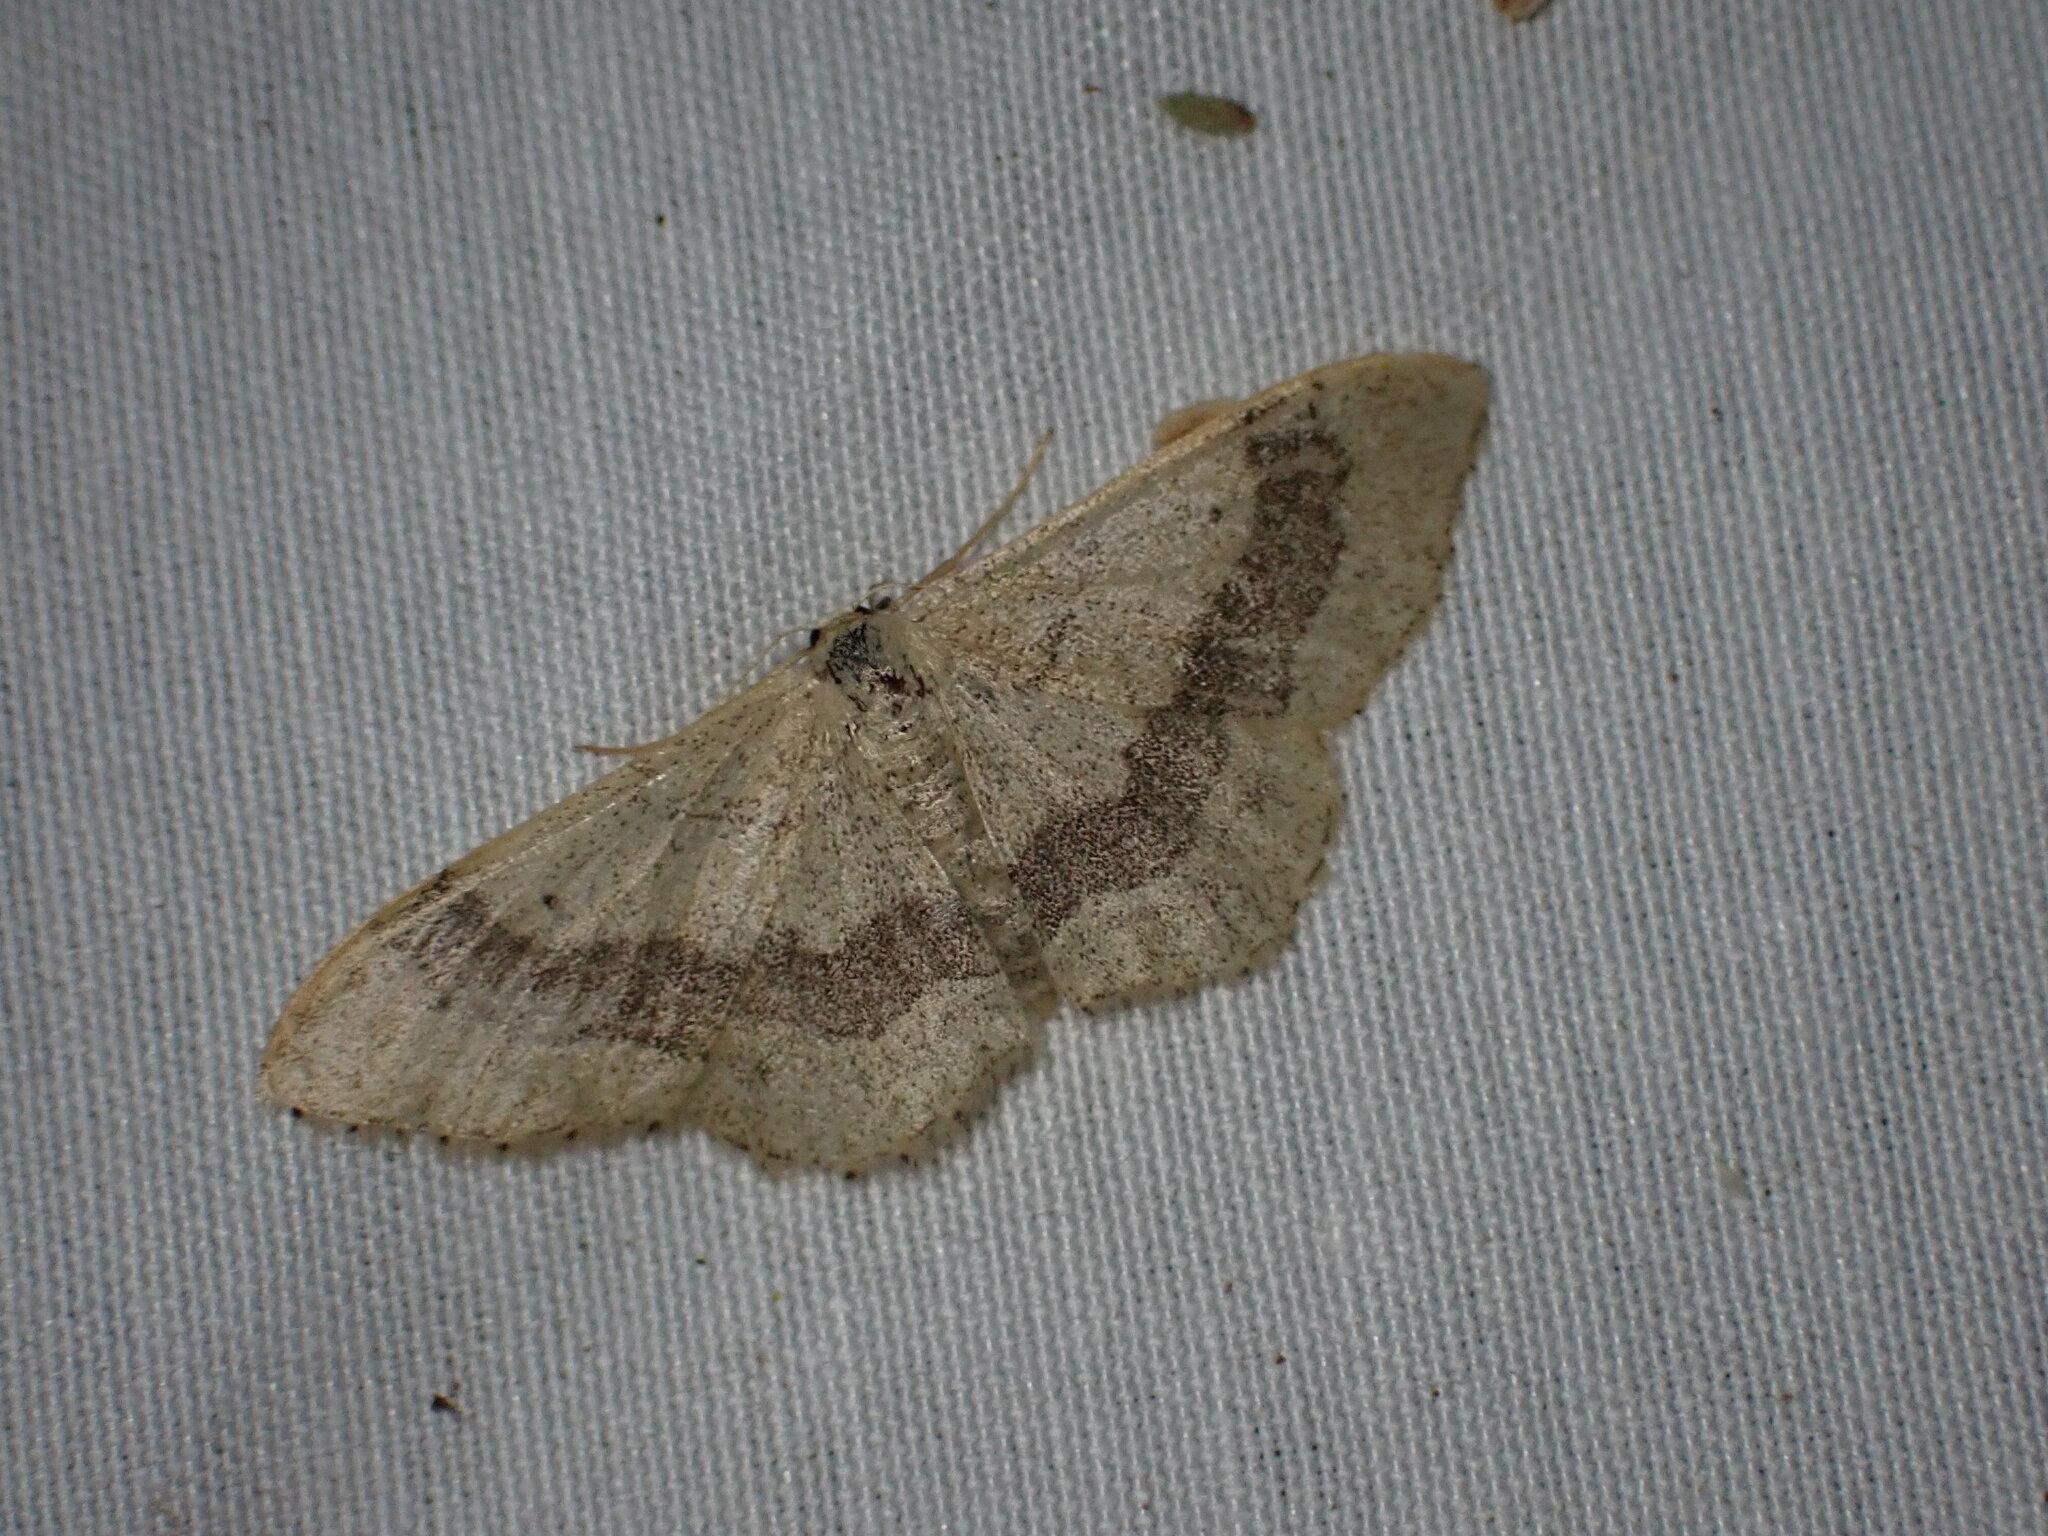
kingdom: Animalia
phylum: Arthropoda
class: Insecta
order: Lepidoptera
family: Geometridae
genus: Idaea
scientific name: Idaea aversata
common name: Riband wave
